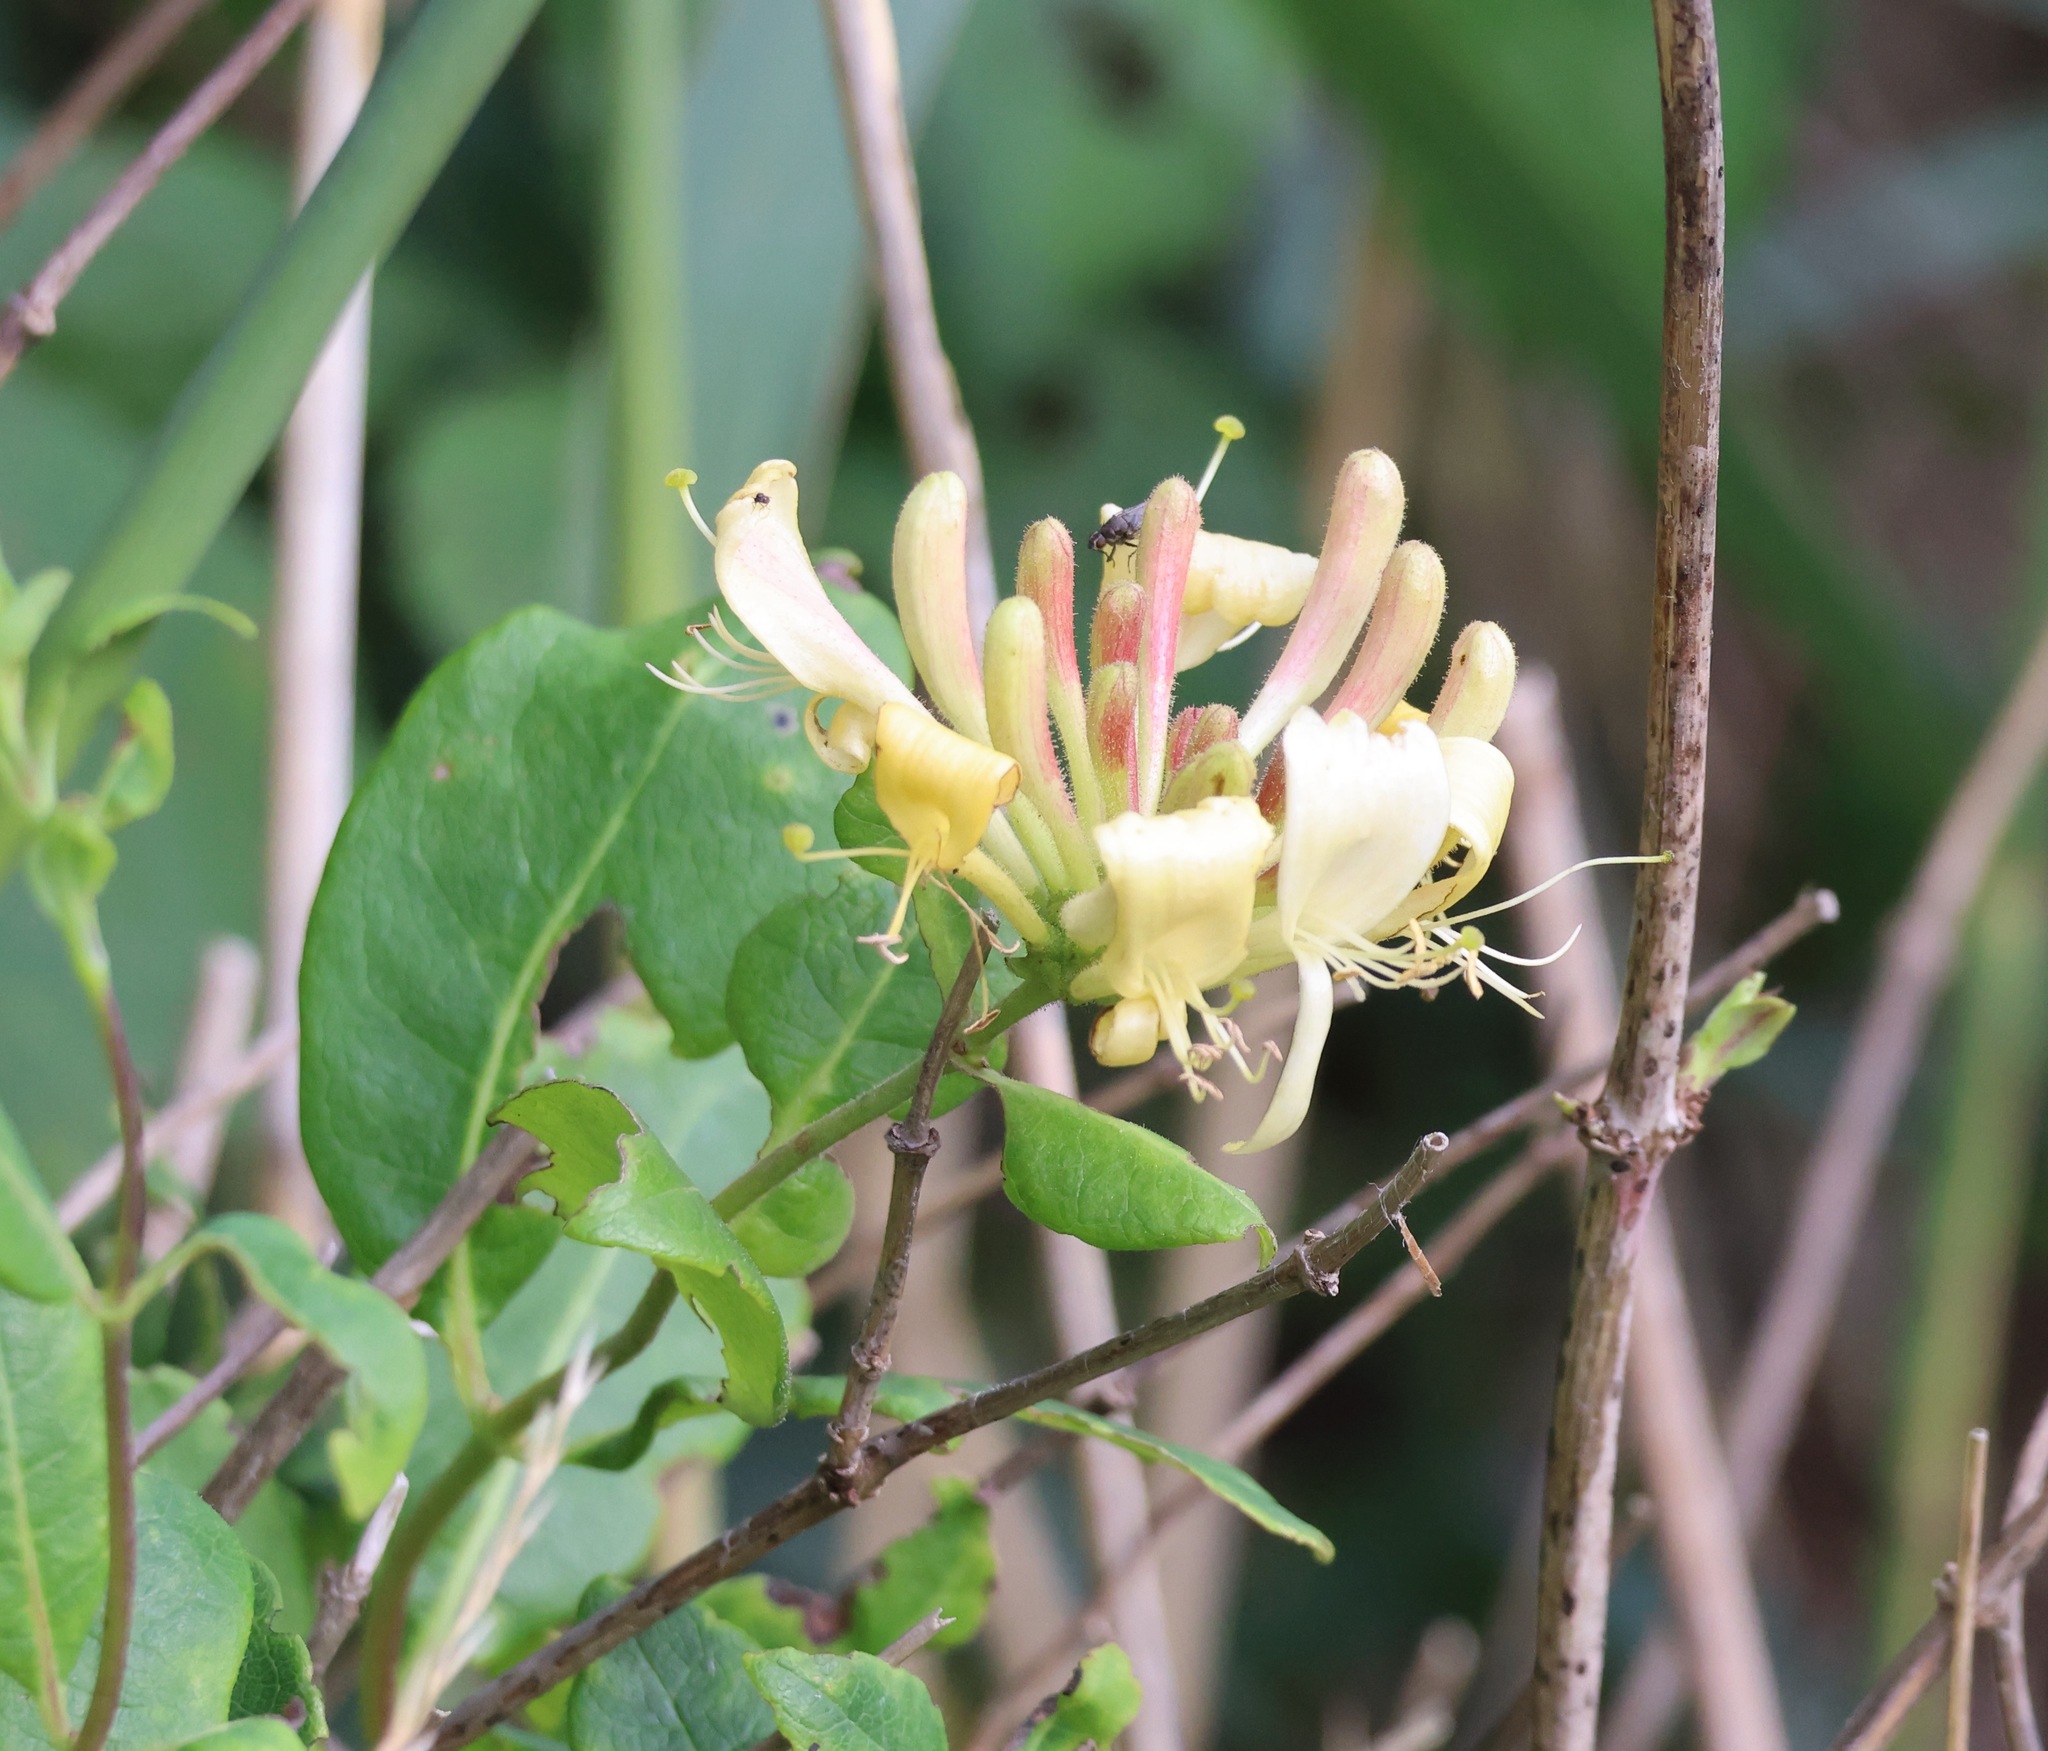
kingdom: Plantae
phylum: Tracheophyta
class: Magnoliopsida
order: Dipsacales
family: Caprifoliaceae
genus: Lonicera
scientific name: Lonicera periclymenum
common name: European honeysuckle
